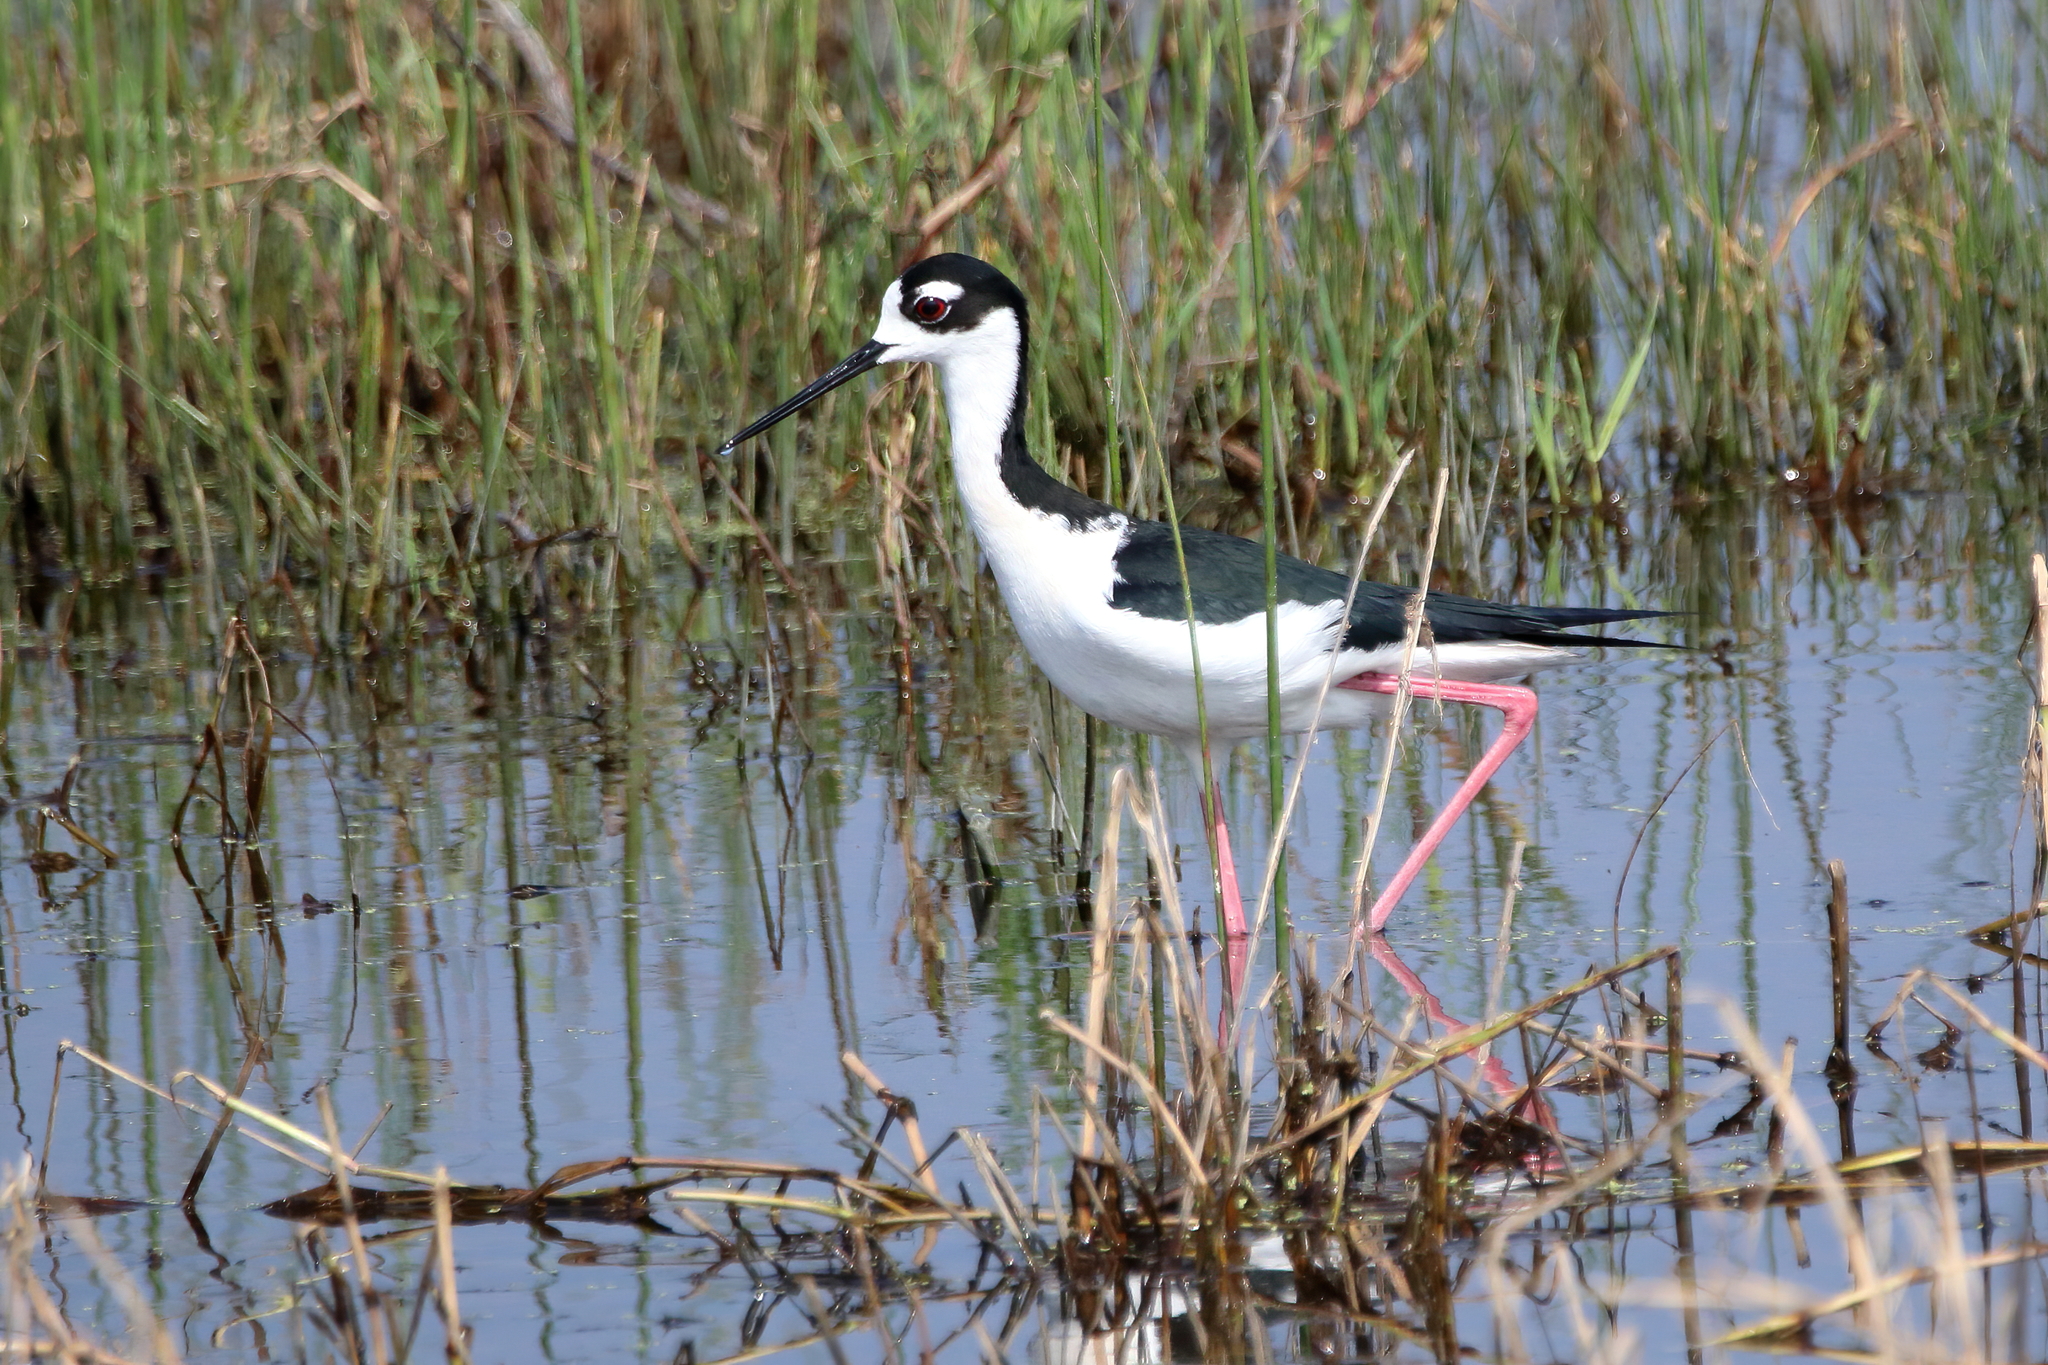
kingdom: Animalia
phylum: Chordata
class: Aves
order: Charadriiformes
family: Recurvirostridae
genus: Himantopus
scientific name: Himantopus mexicanus
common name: Black-necked stilt
